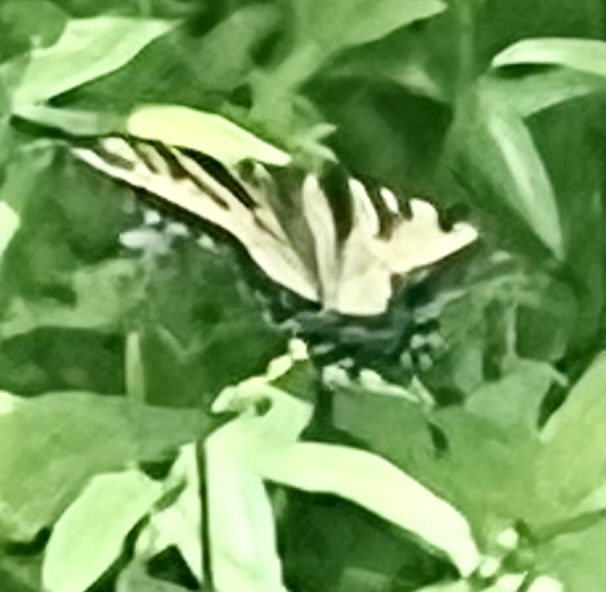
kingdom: Animalia
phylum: Arthropoda
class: Insecta
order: Lepidoptera
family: Papilionidae
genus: Papilio
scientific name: Papilio glaucus
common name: Tiger swallowtail
